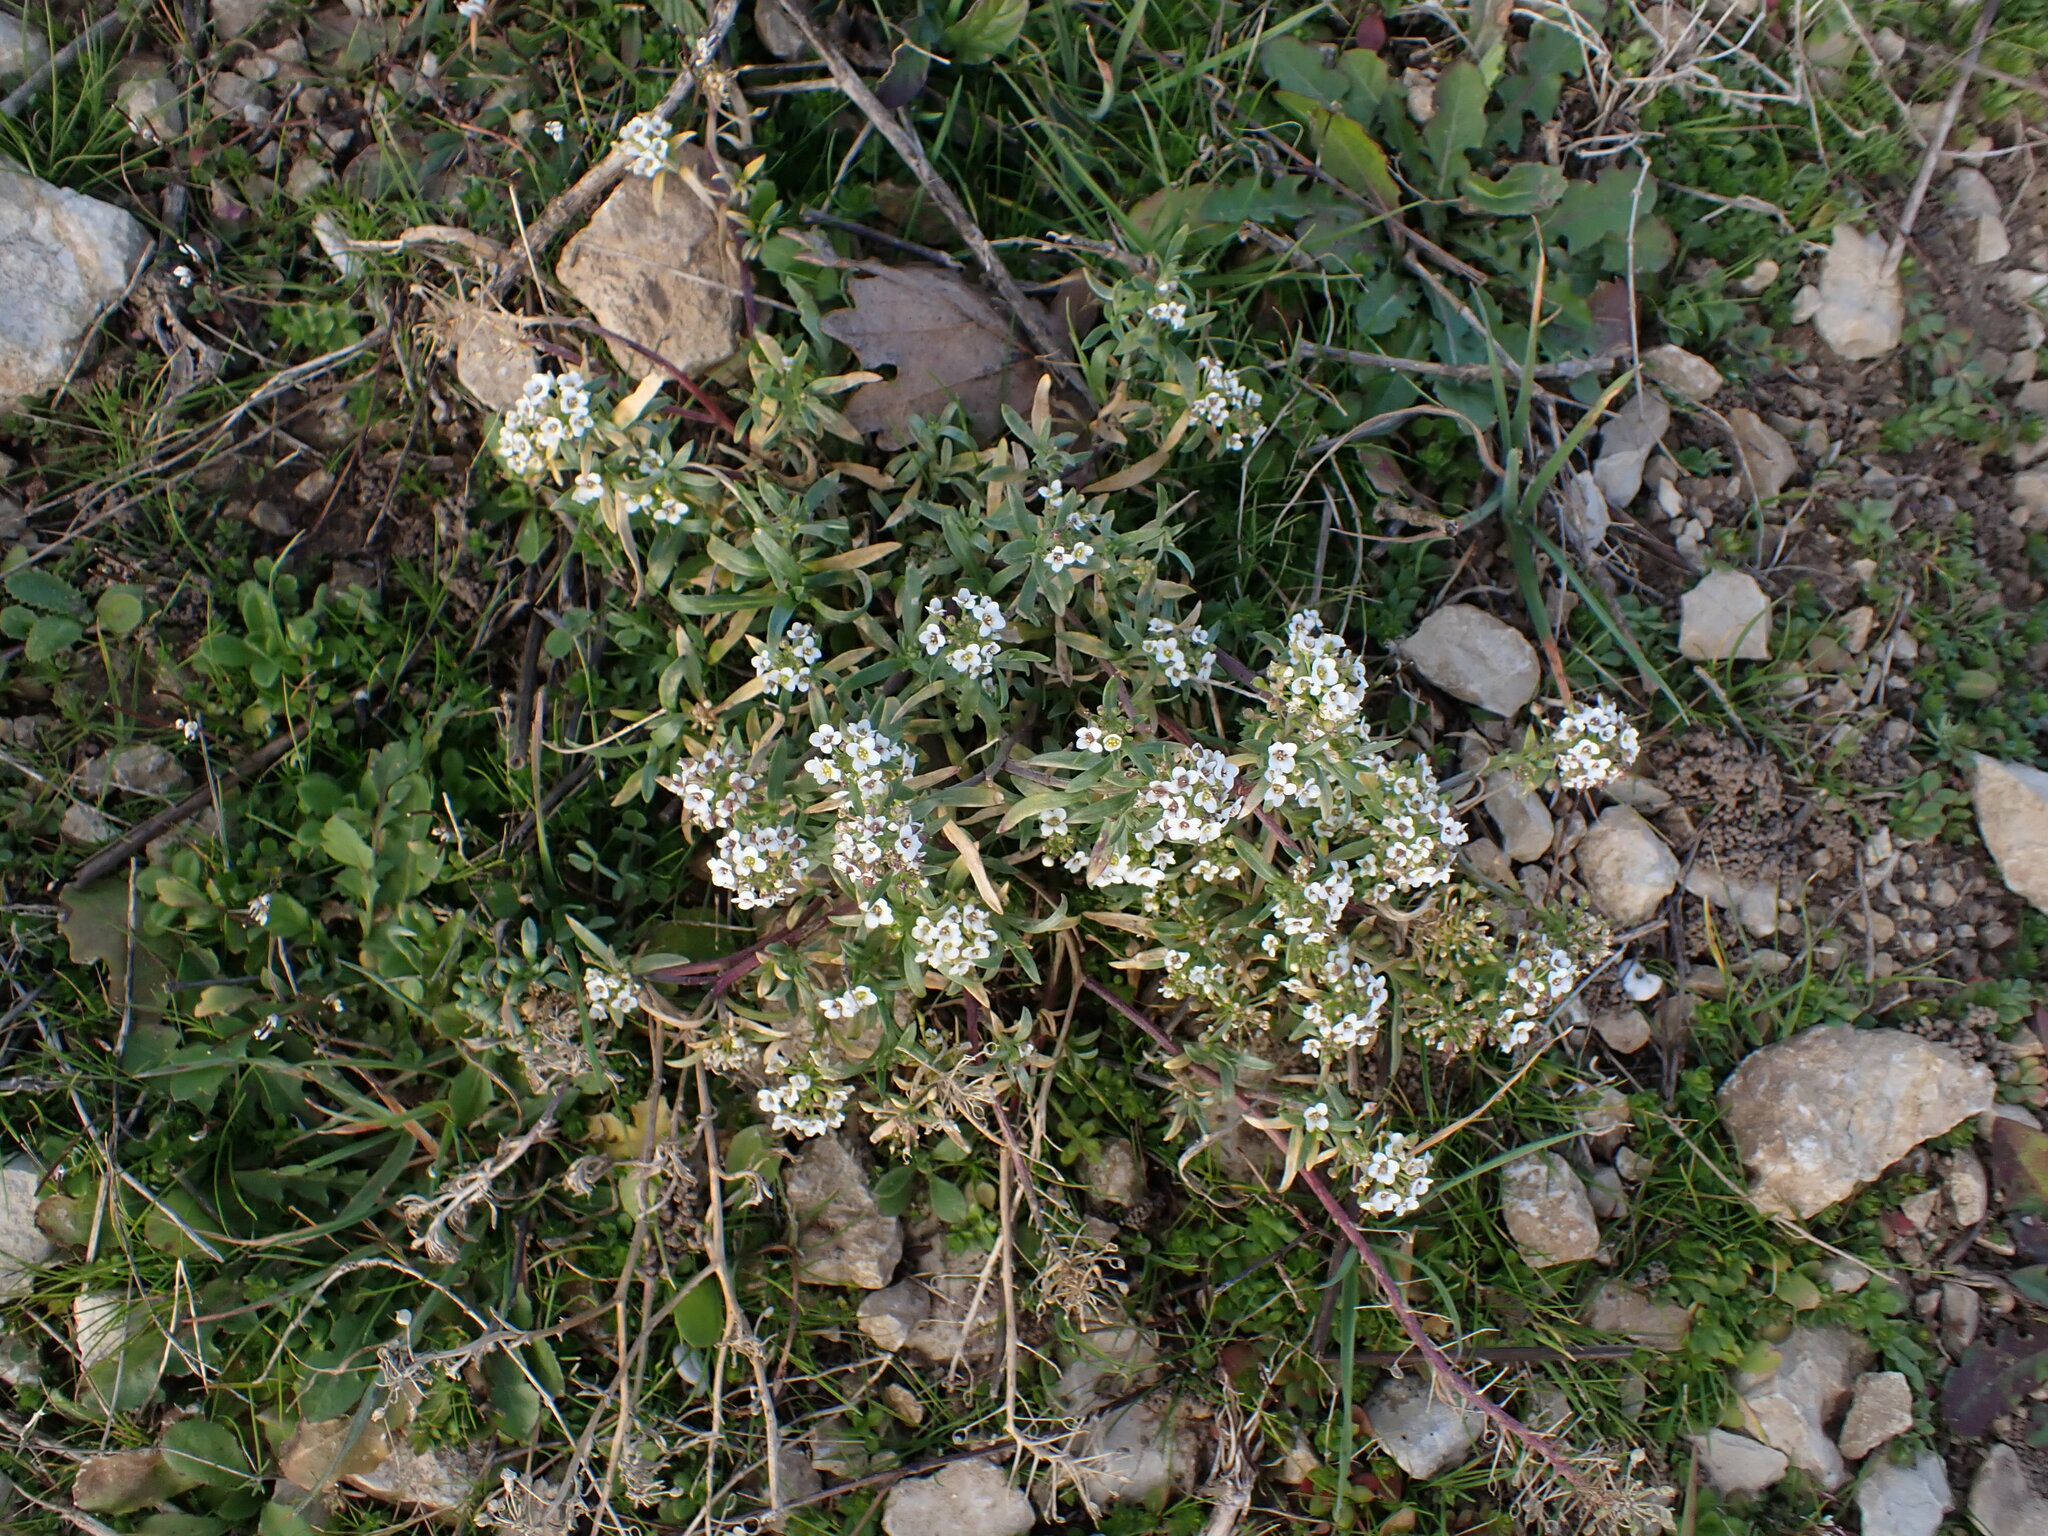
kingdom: Plantae
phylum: Tracheophyta
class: Magnoliopsida
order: Brassicales
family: Brassicaceae
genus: Lobularia
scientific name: Lobularia maritima
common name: Sweet alison
